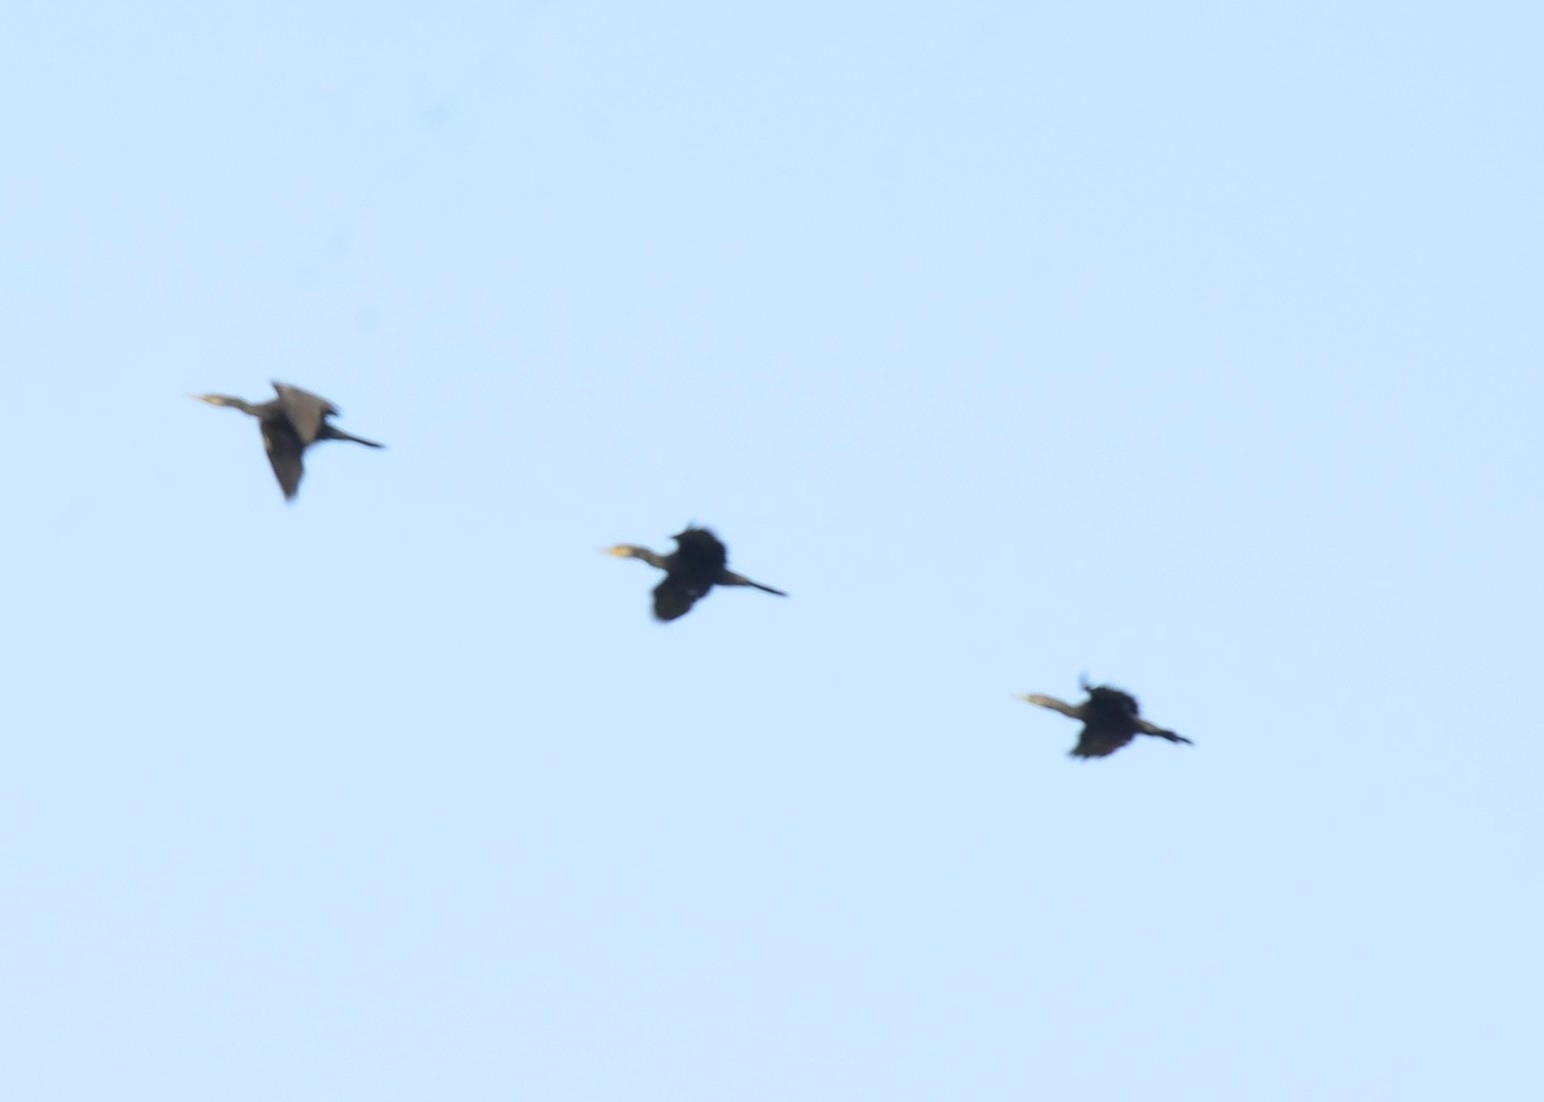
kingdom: Animalia
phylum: Chordata
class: Aves
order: Suliformes
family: Phalacrocoracidae
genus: Phalacrocorax
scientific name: Phalacrocorax fuscicollis
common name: Indian cormorant
